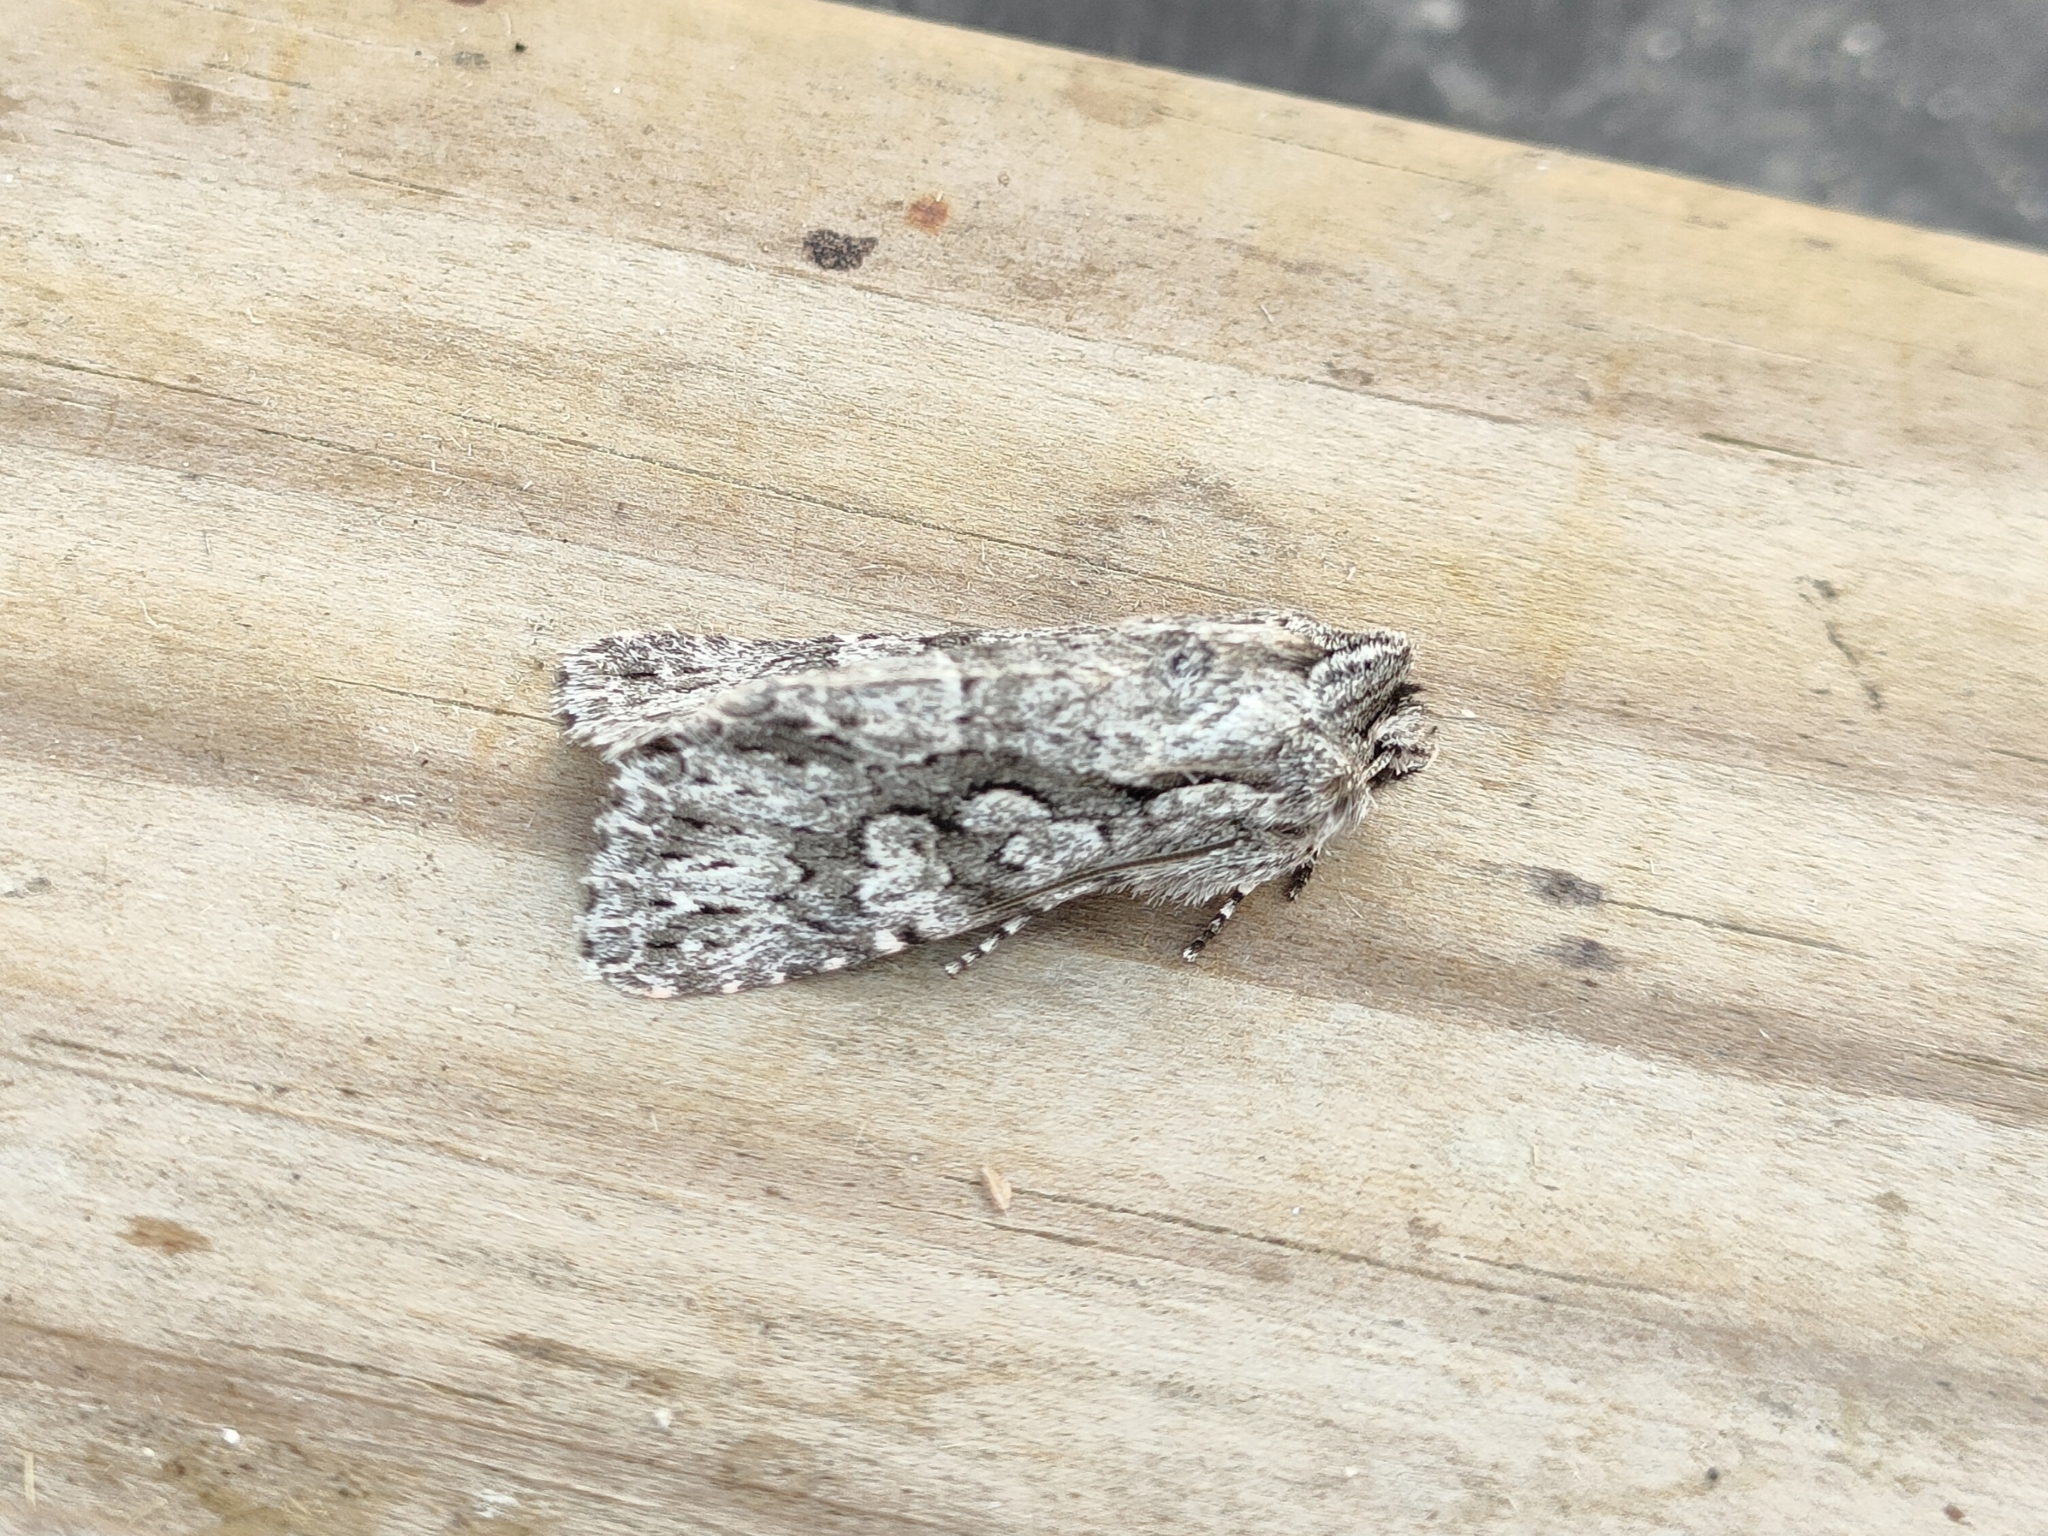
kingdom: Animalia
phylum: Arthropoda
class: Insecta
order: Lepidoptera
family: Noctuidae
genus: Xylocampa
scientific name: Xylocampa areola
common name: Early grey
